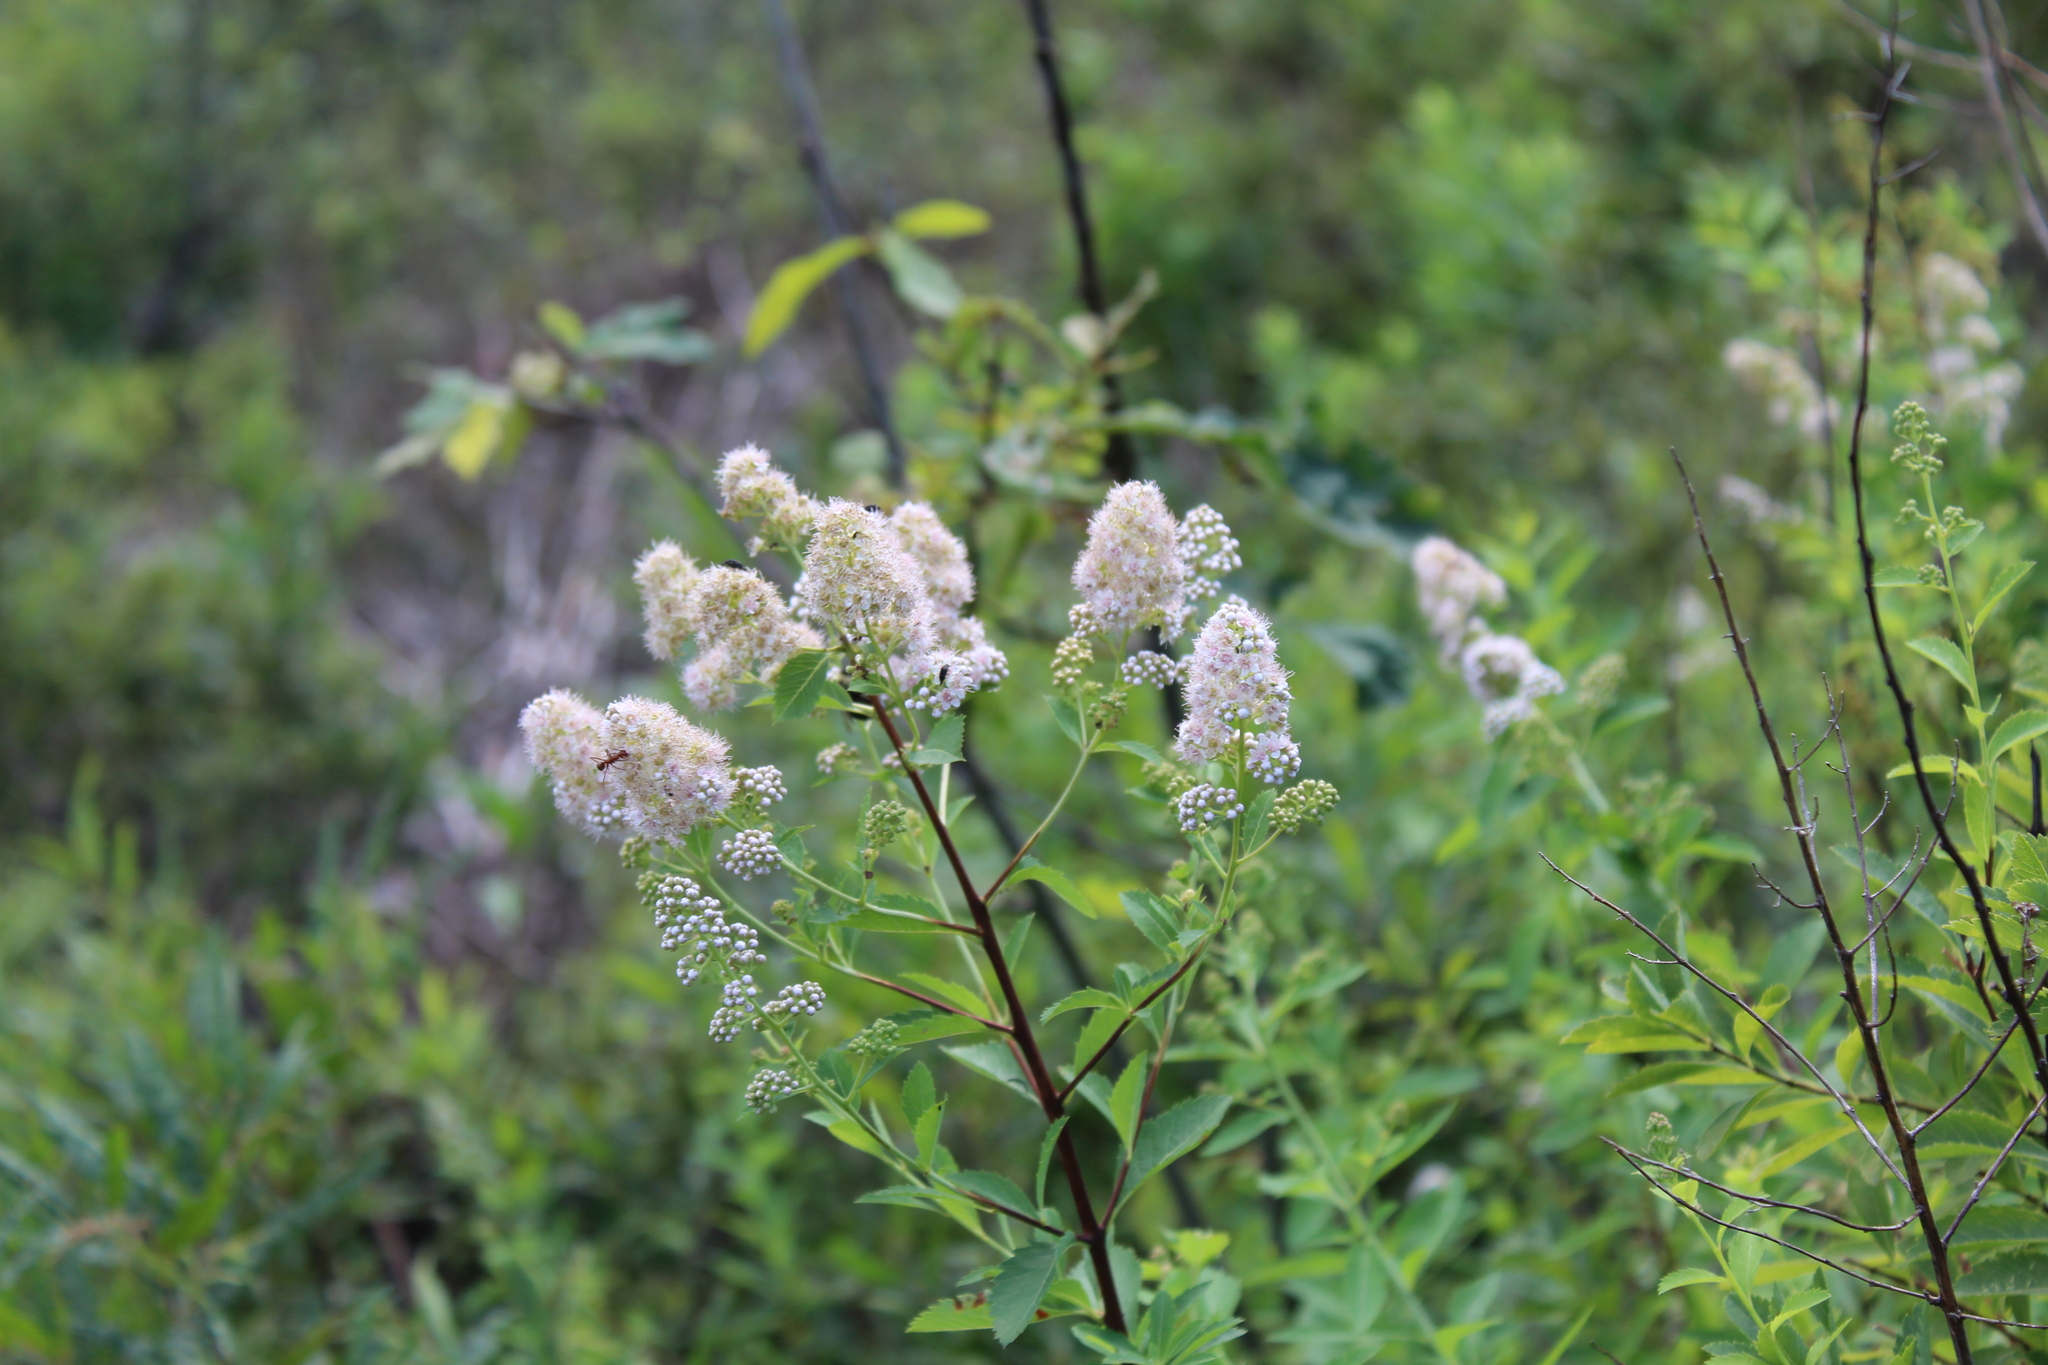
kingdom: Plantae
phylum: Tracheophyta
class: Magnoliopsida
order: Rosales
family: Rosaceae
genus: Spiraea
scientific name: Spiraea alba
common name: Pale bridewort
